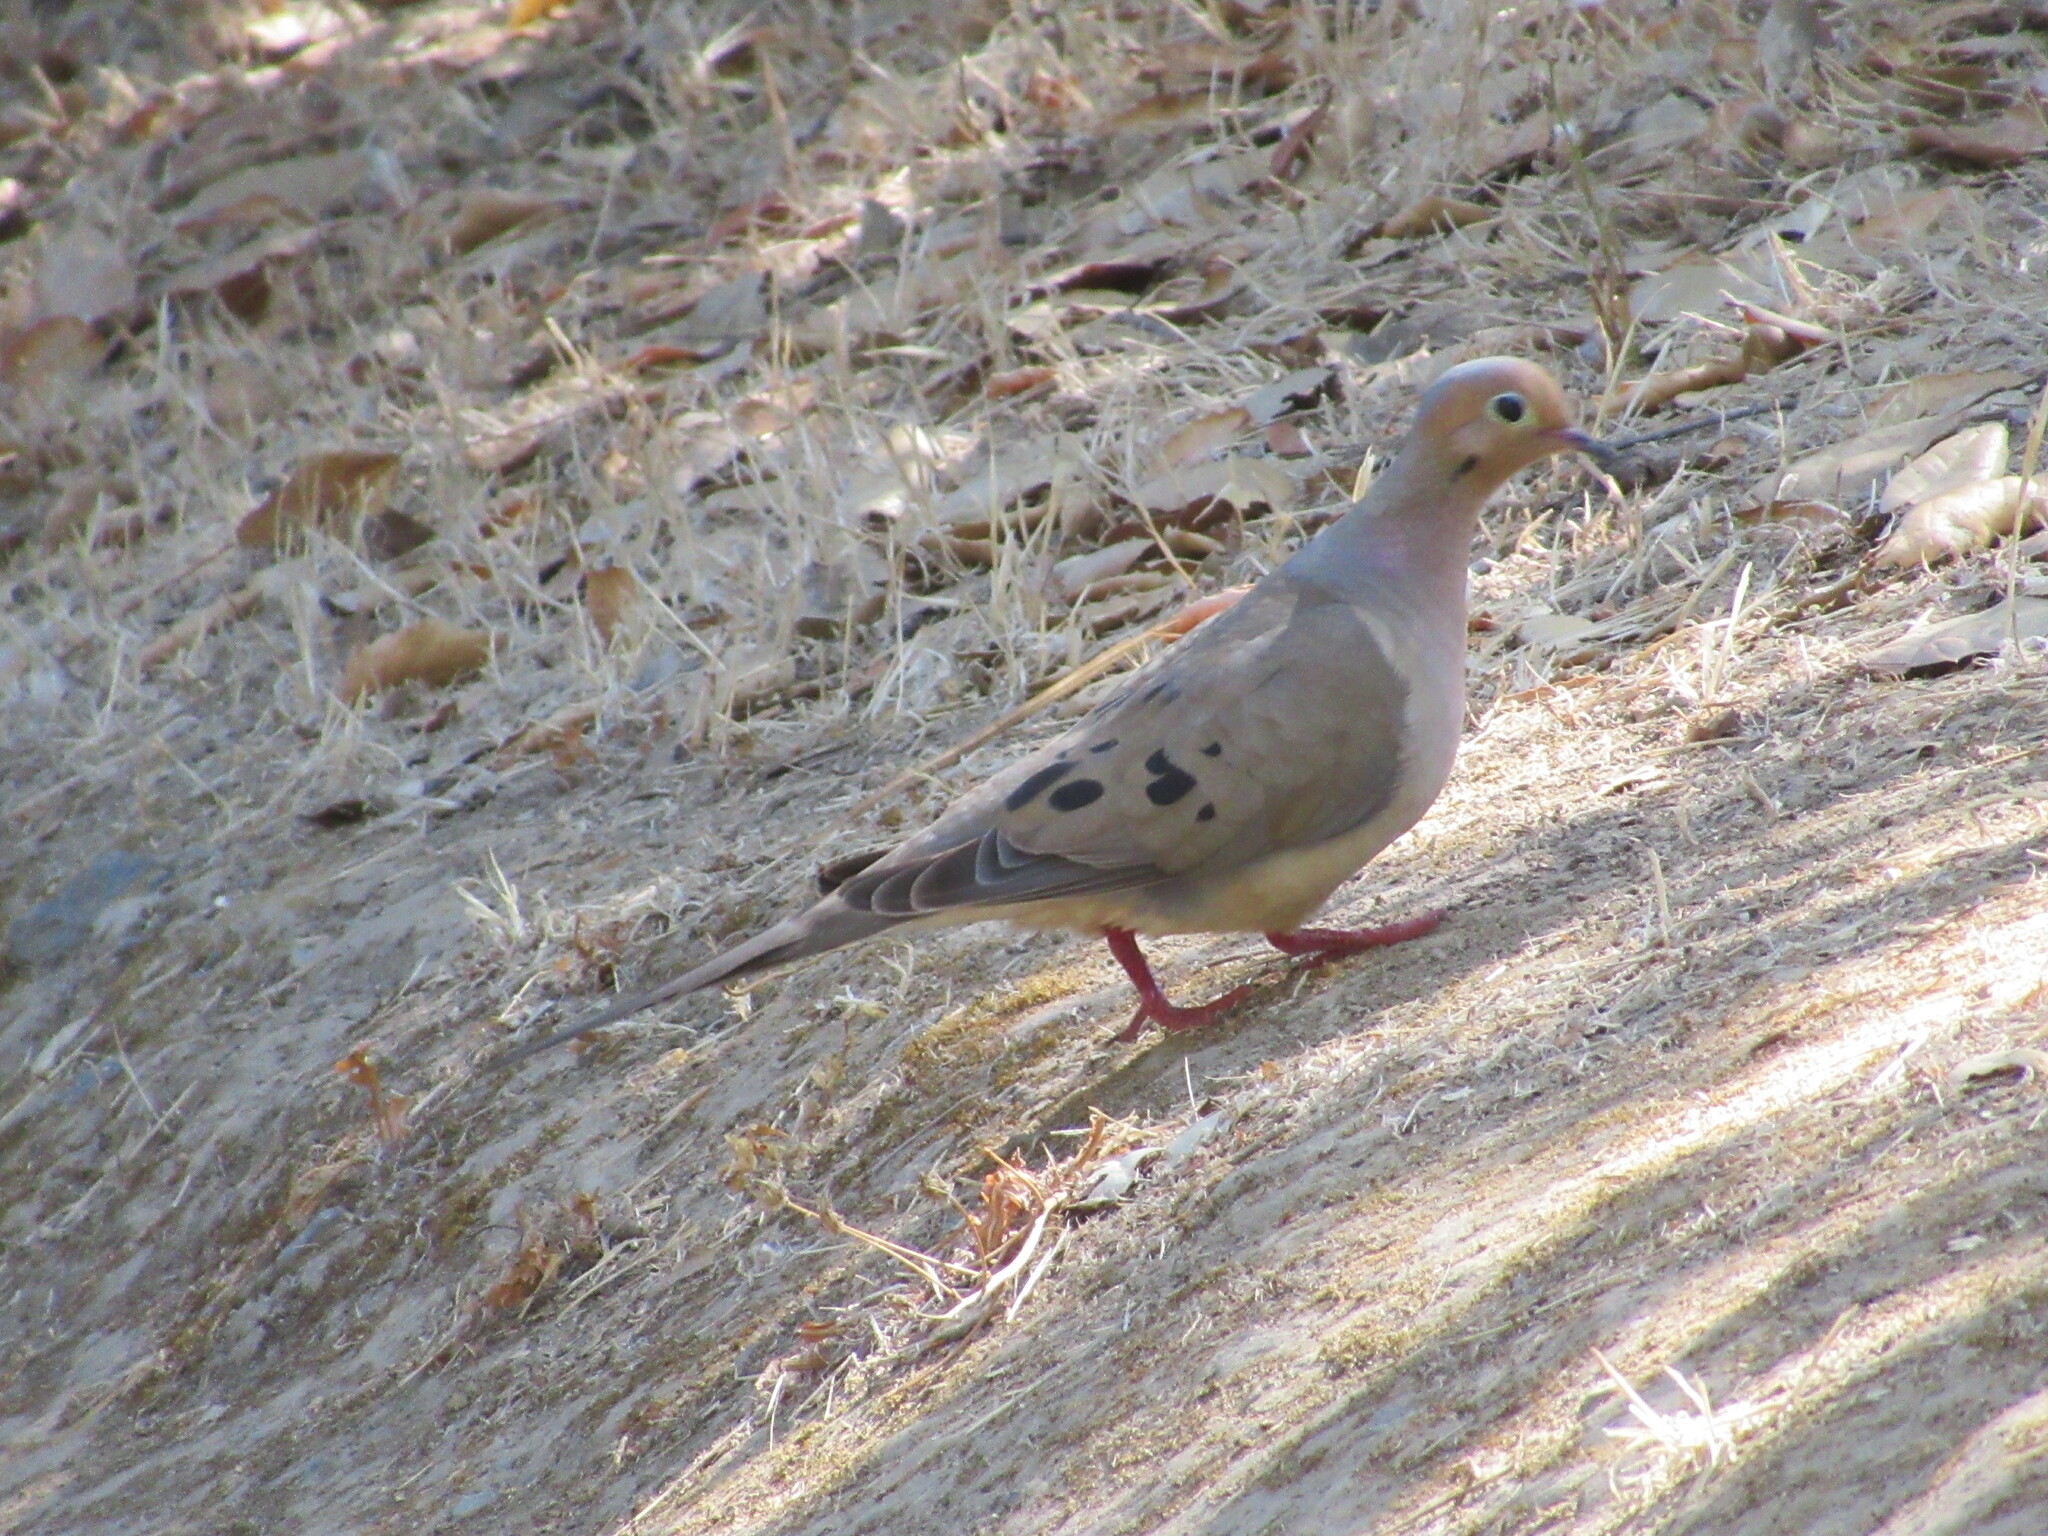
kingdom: Animalia
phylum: Chordata
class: Aves
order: Columbiformes
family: Columbidae
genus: Zenaida
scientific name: Zenaida macroura
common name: Mourning dove
